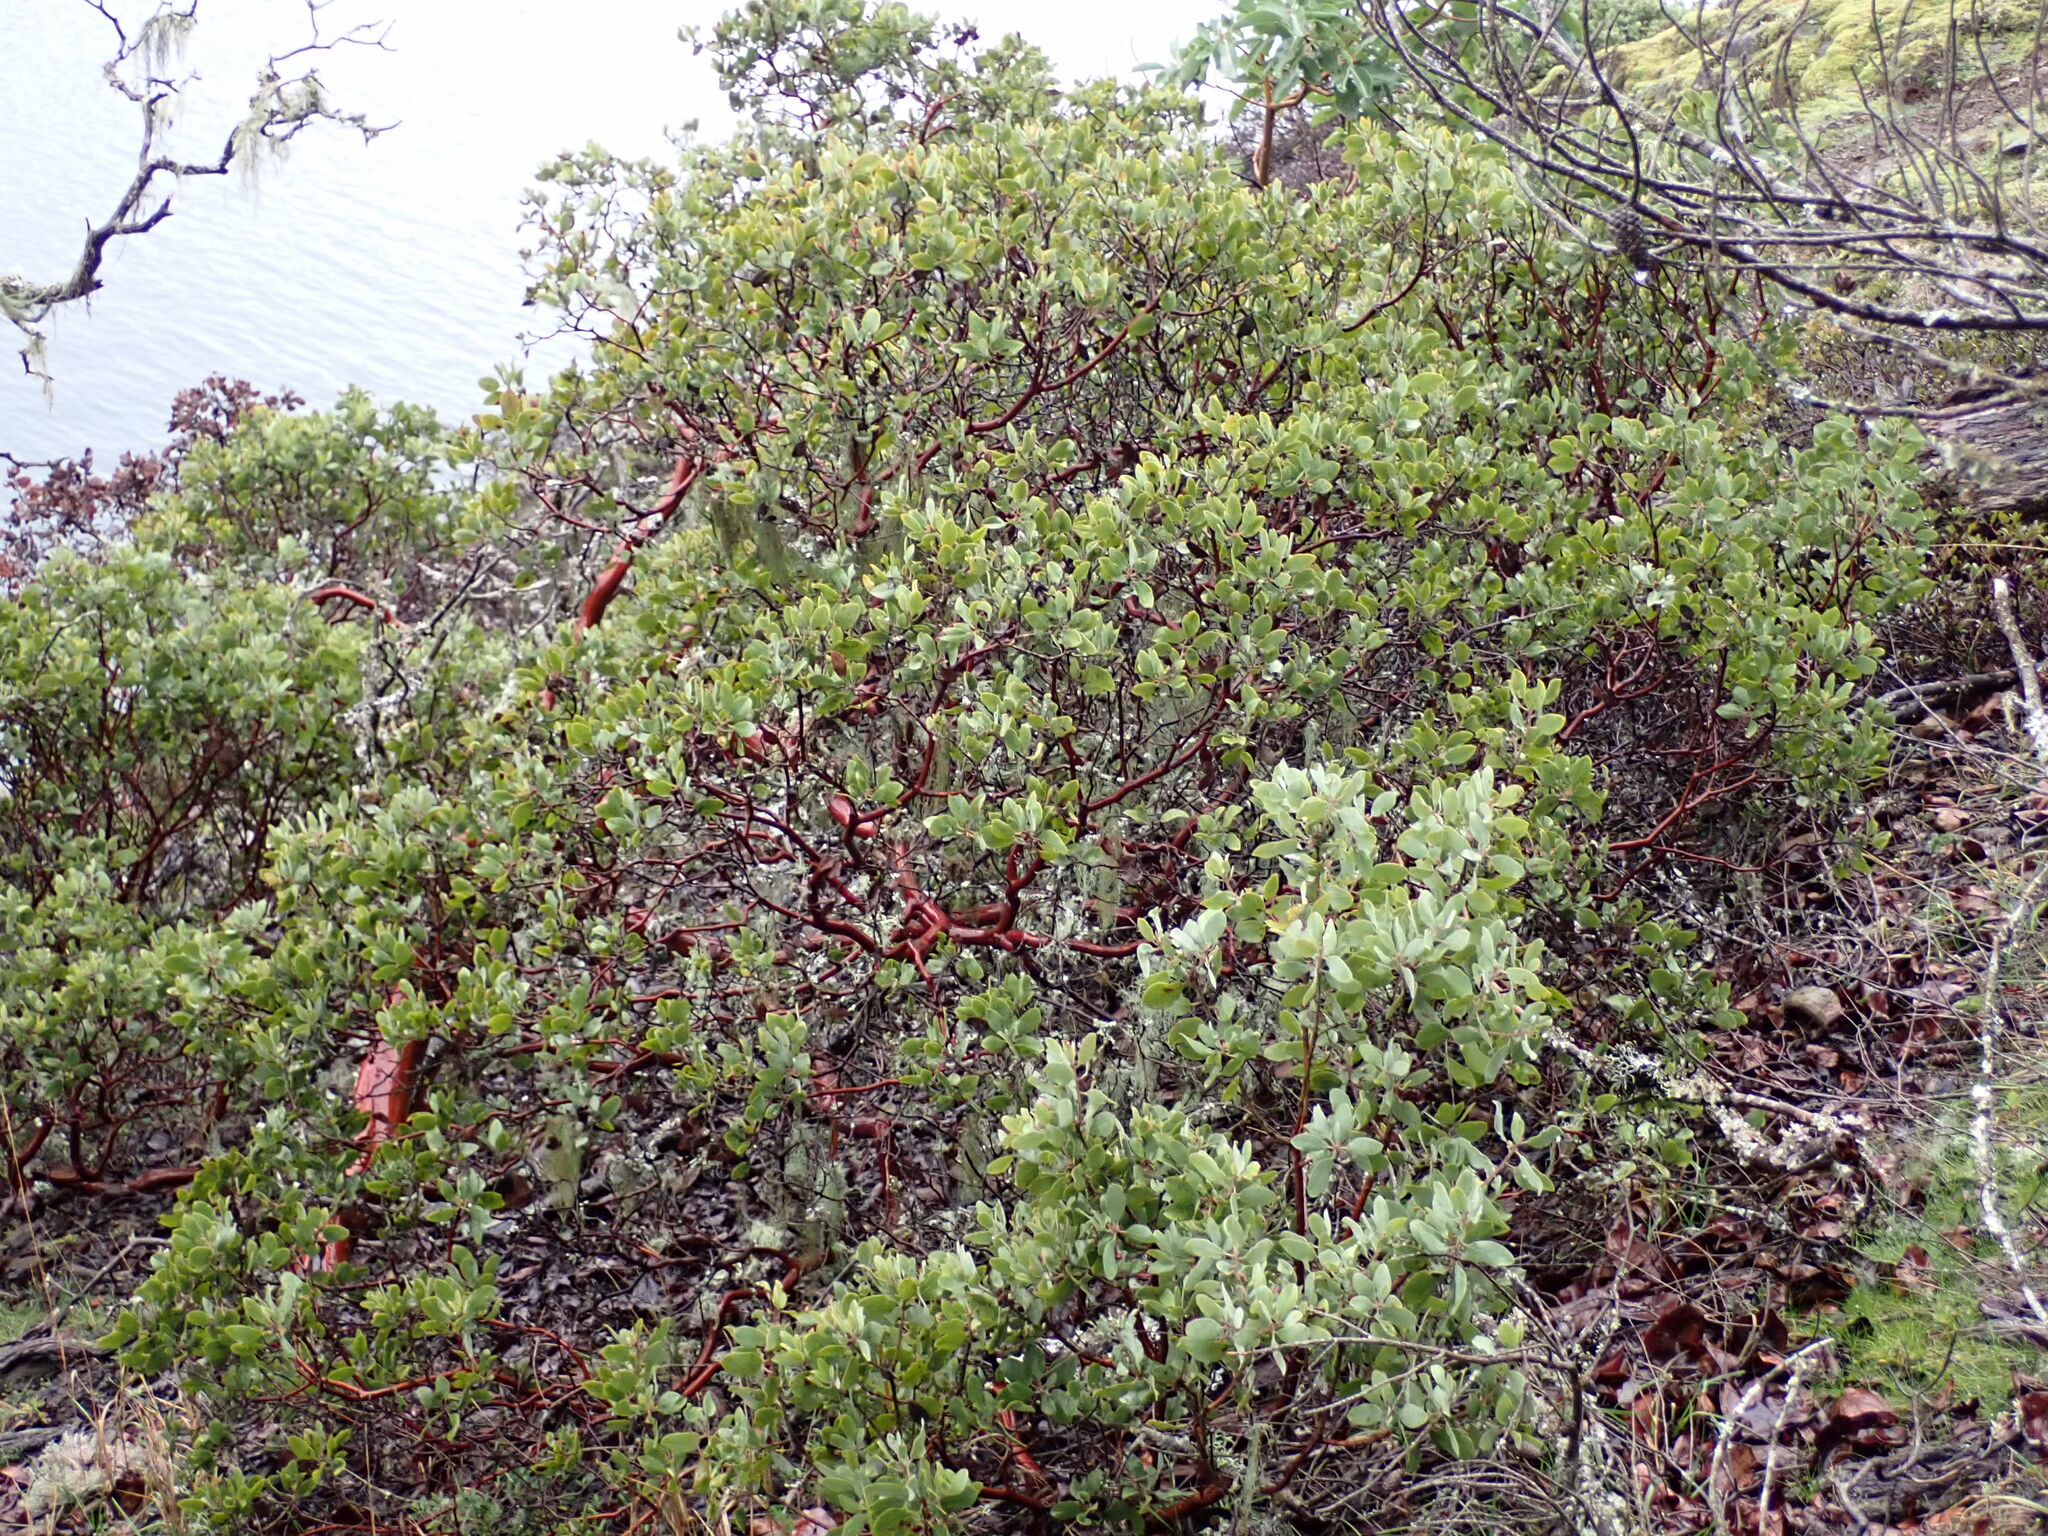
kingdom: Plantae
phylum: Tracheophyta
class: Magnoliopsida
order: Ericales
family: Ericaceae
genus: Arctostaphylos
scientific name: Arctostaphylos columbiana
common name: Bristly bearberry
